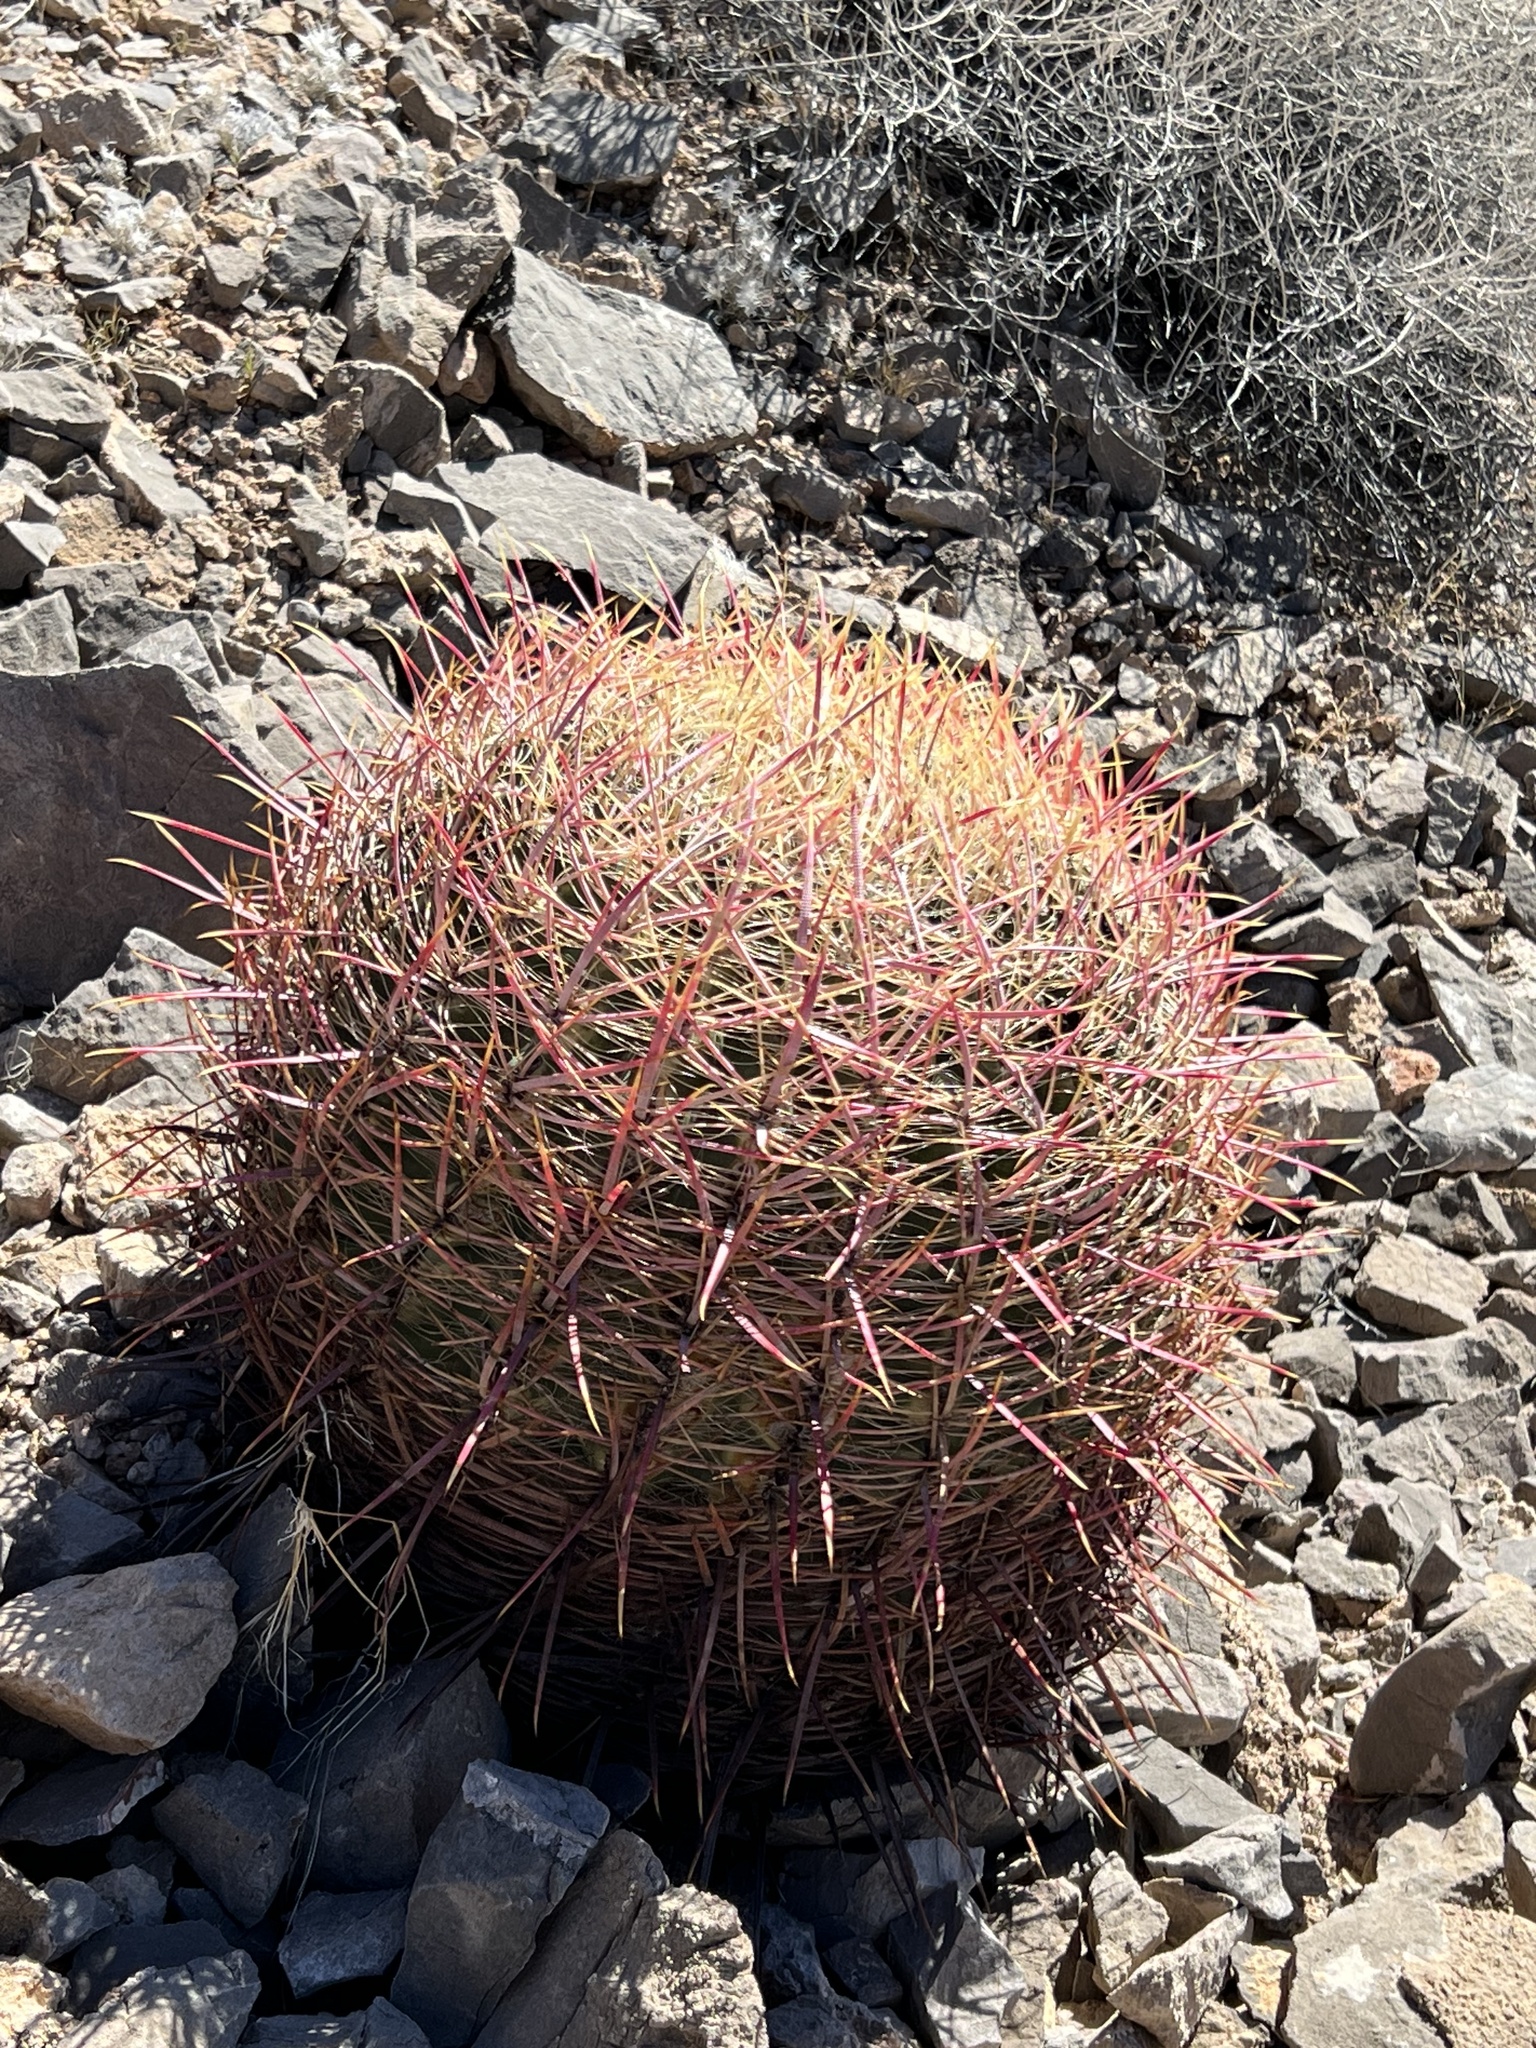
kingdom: Plantae
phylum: Tracheophyta
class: Magnoliopsida
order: Caryophyllales
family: Cactaceae
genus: Ferocactus
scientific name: Ferocactus cylindraceus
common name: California barrel cactus
